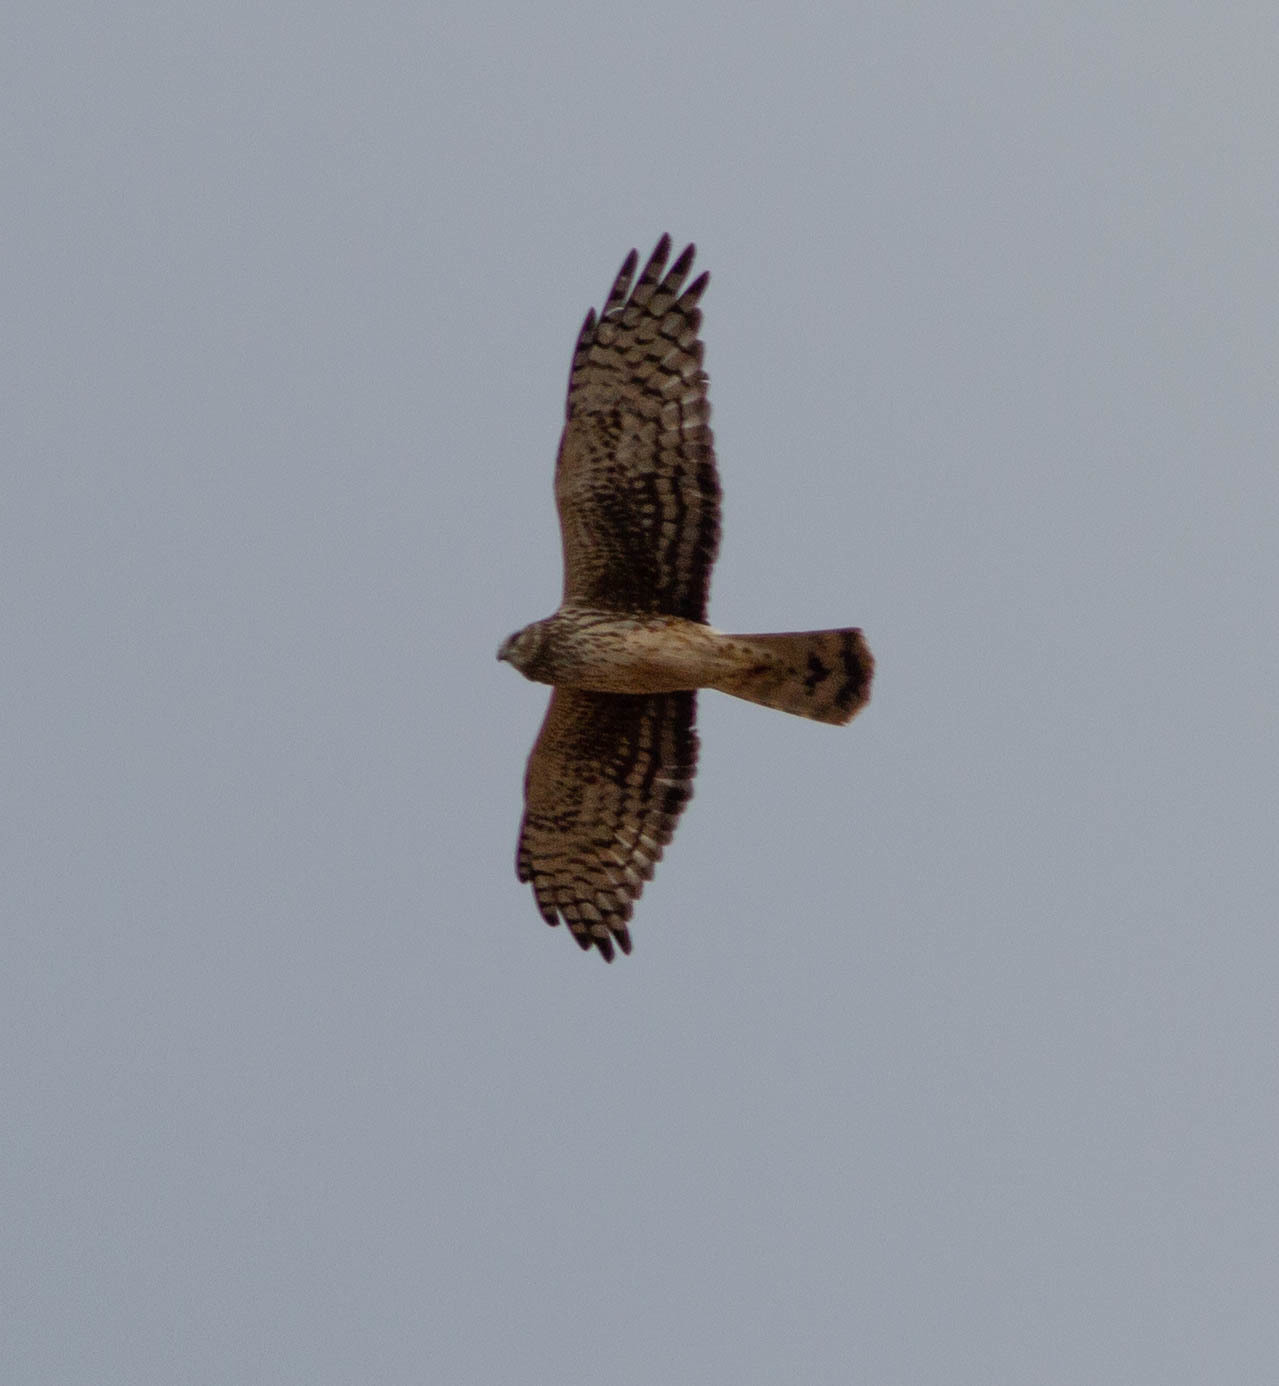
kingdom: Animalia
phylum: Chordata
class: Aves
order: Accipitriformes
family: Accipitridae
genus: Circus
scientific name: Circus cyaneus
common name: Hen harrier
